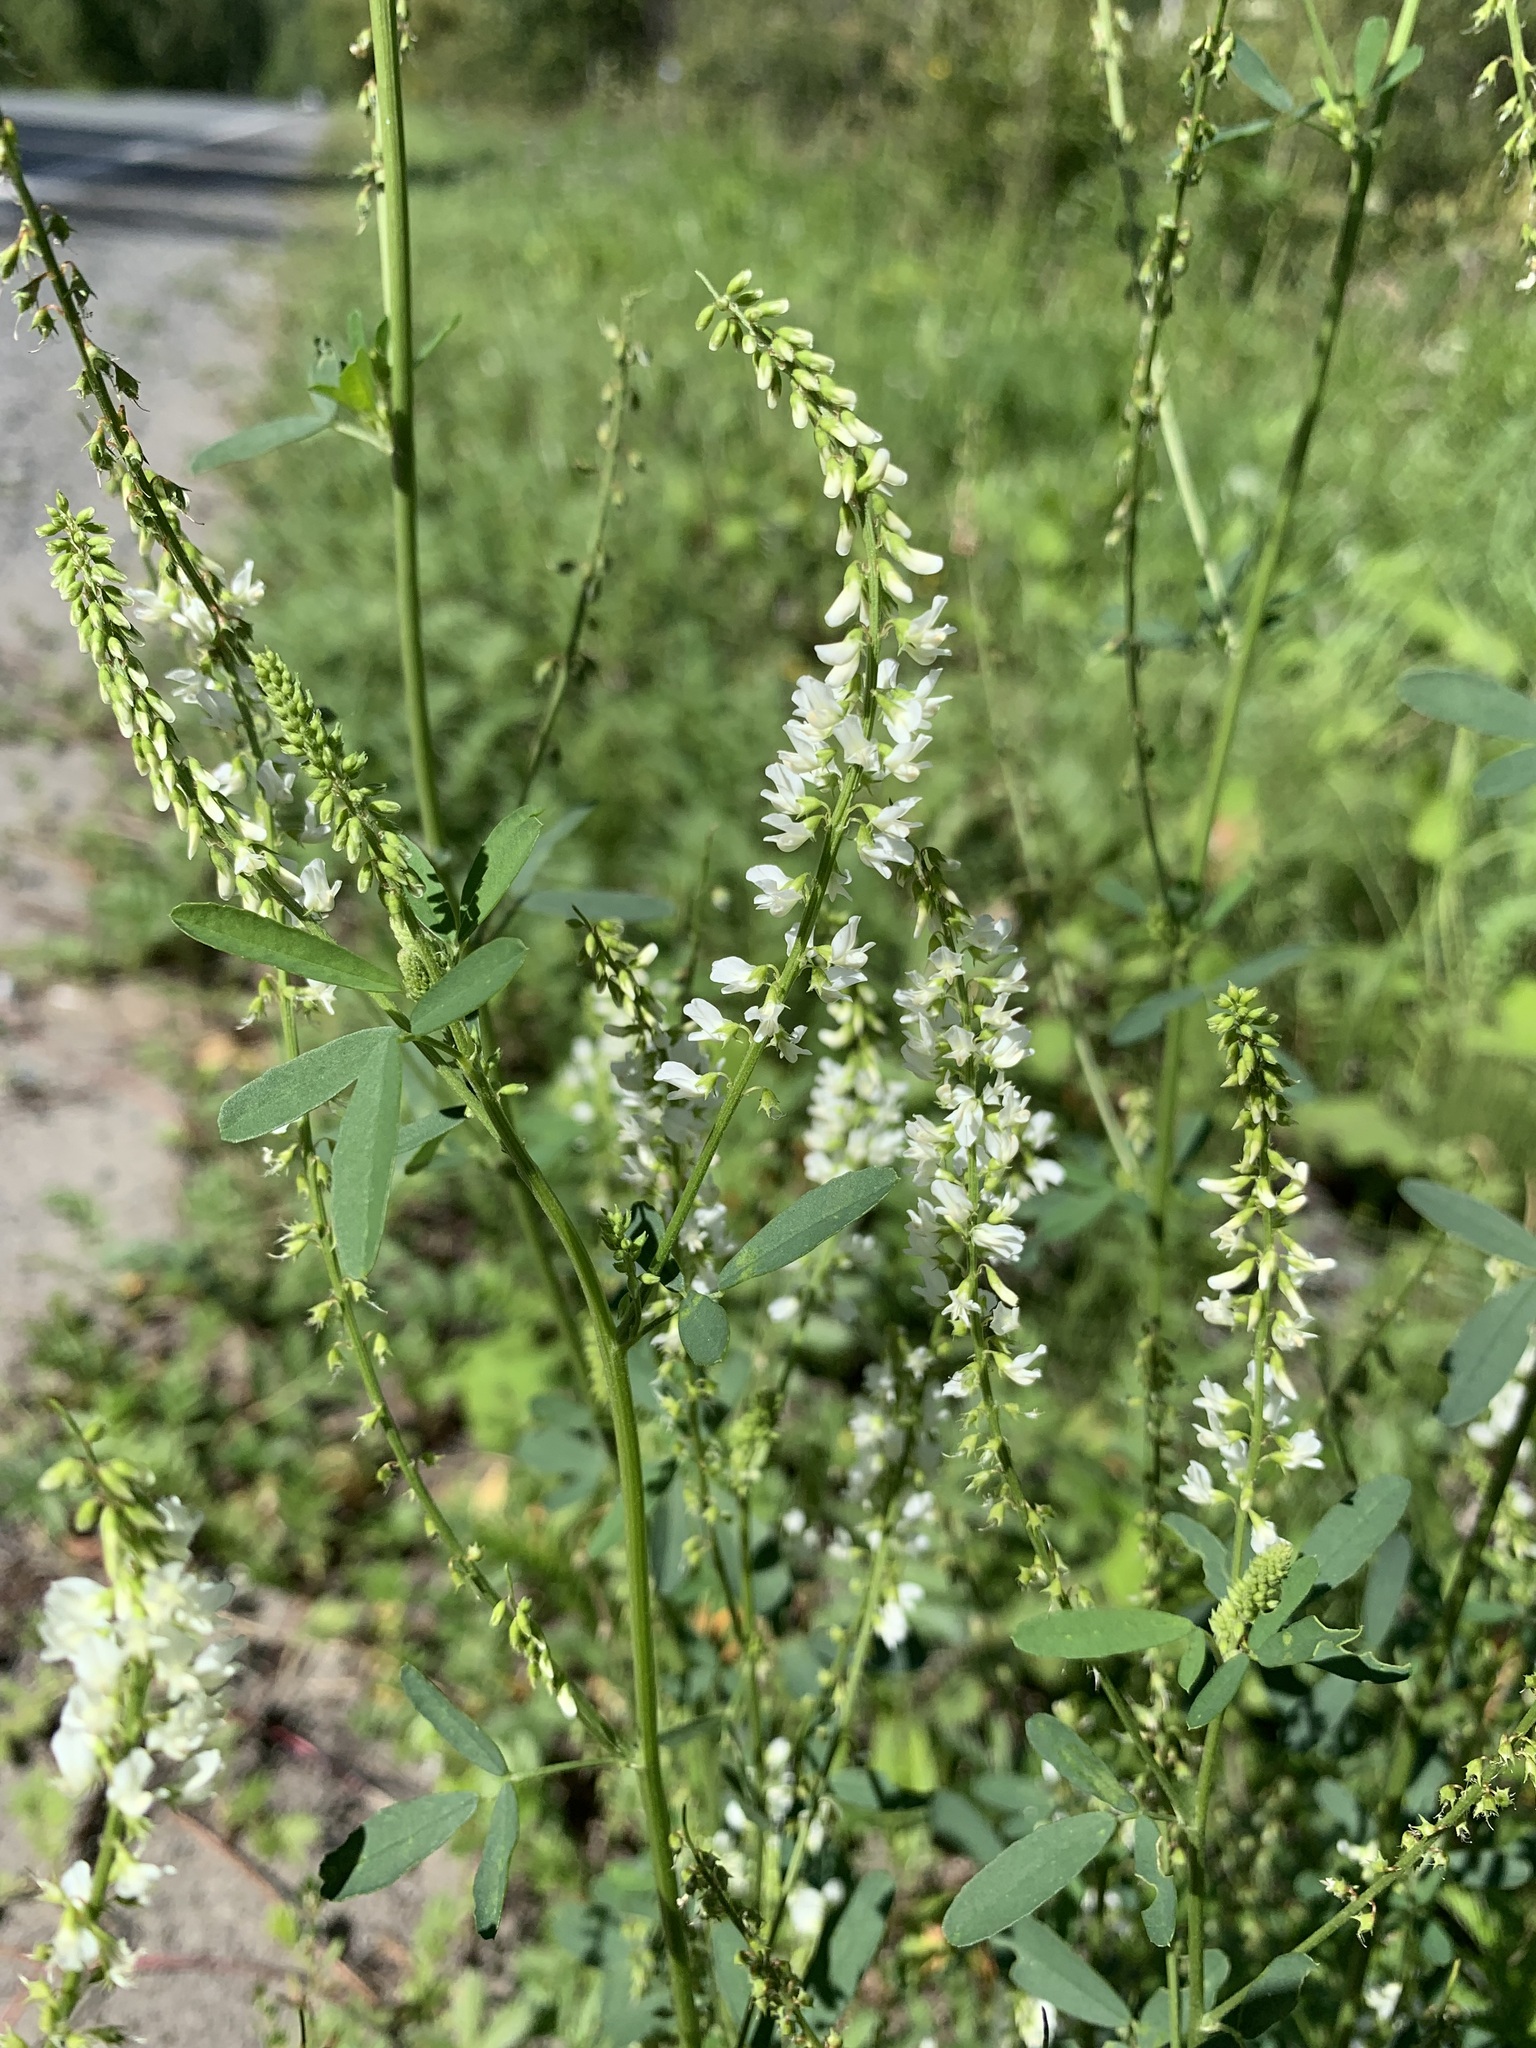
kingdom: Plantae
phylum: Tracheophyta
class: Magnoliopsida
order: Fabales
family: Fabaceae
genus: Melilotus
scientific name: Melilotus albus
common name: White melilot
